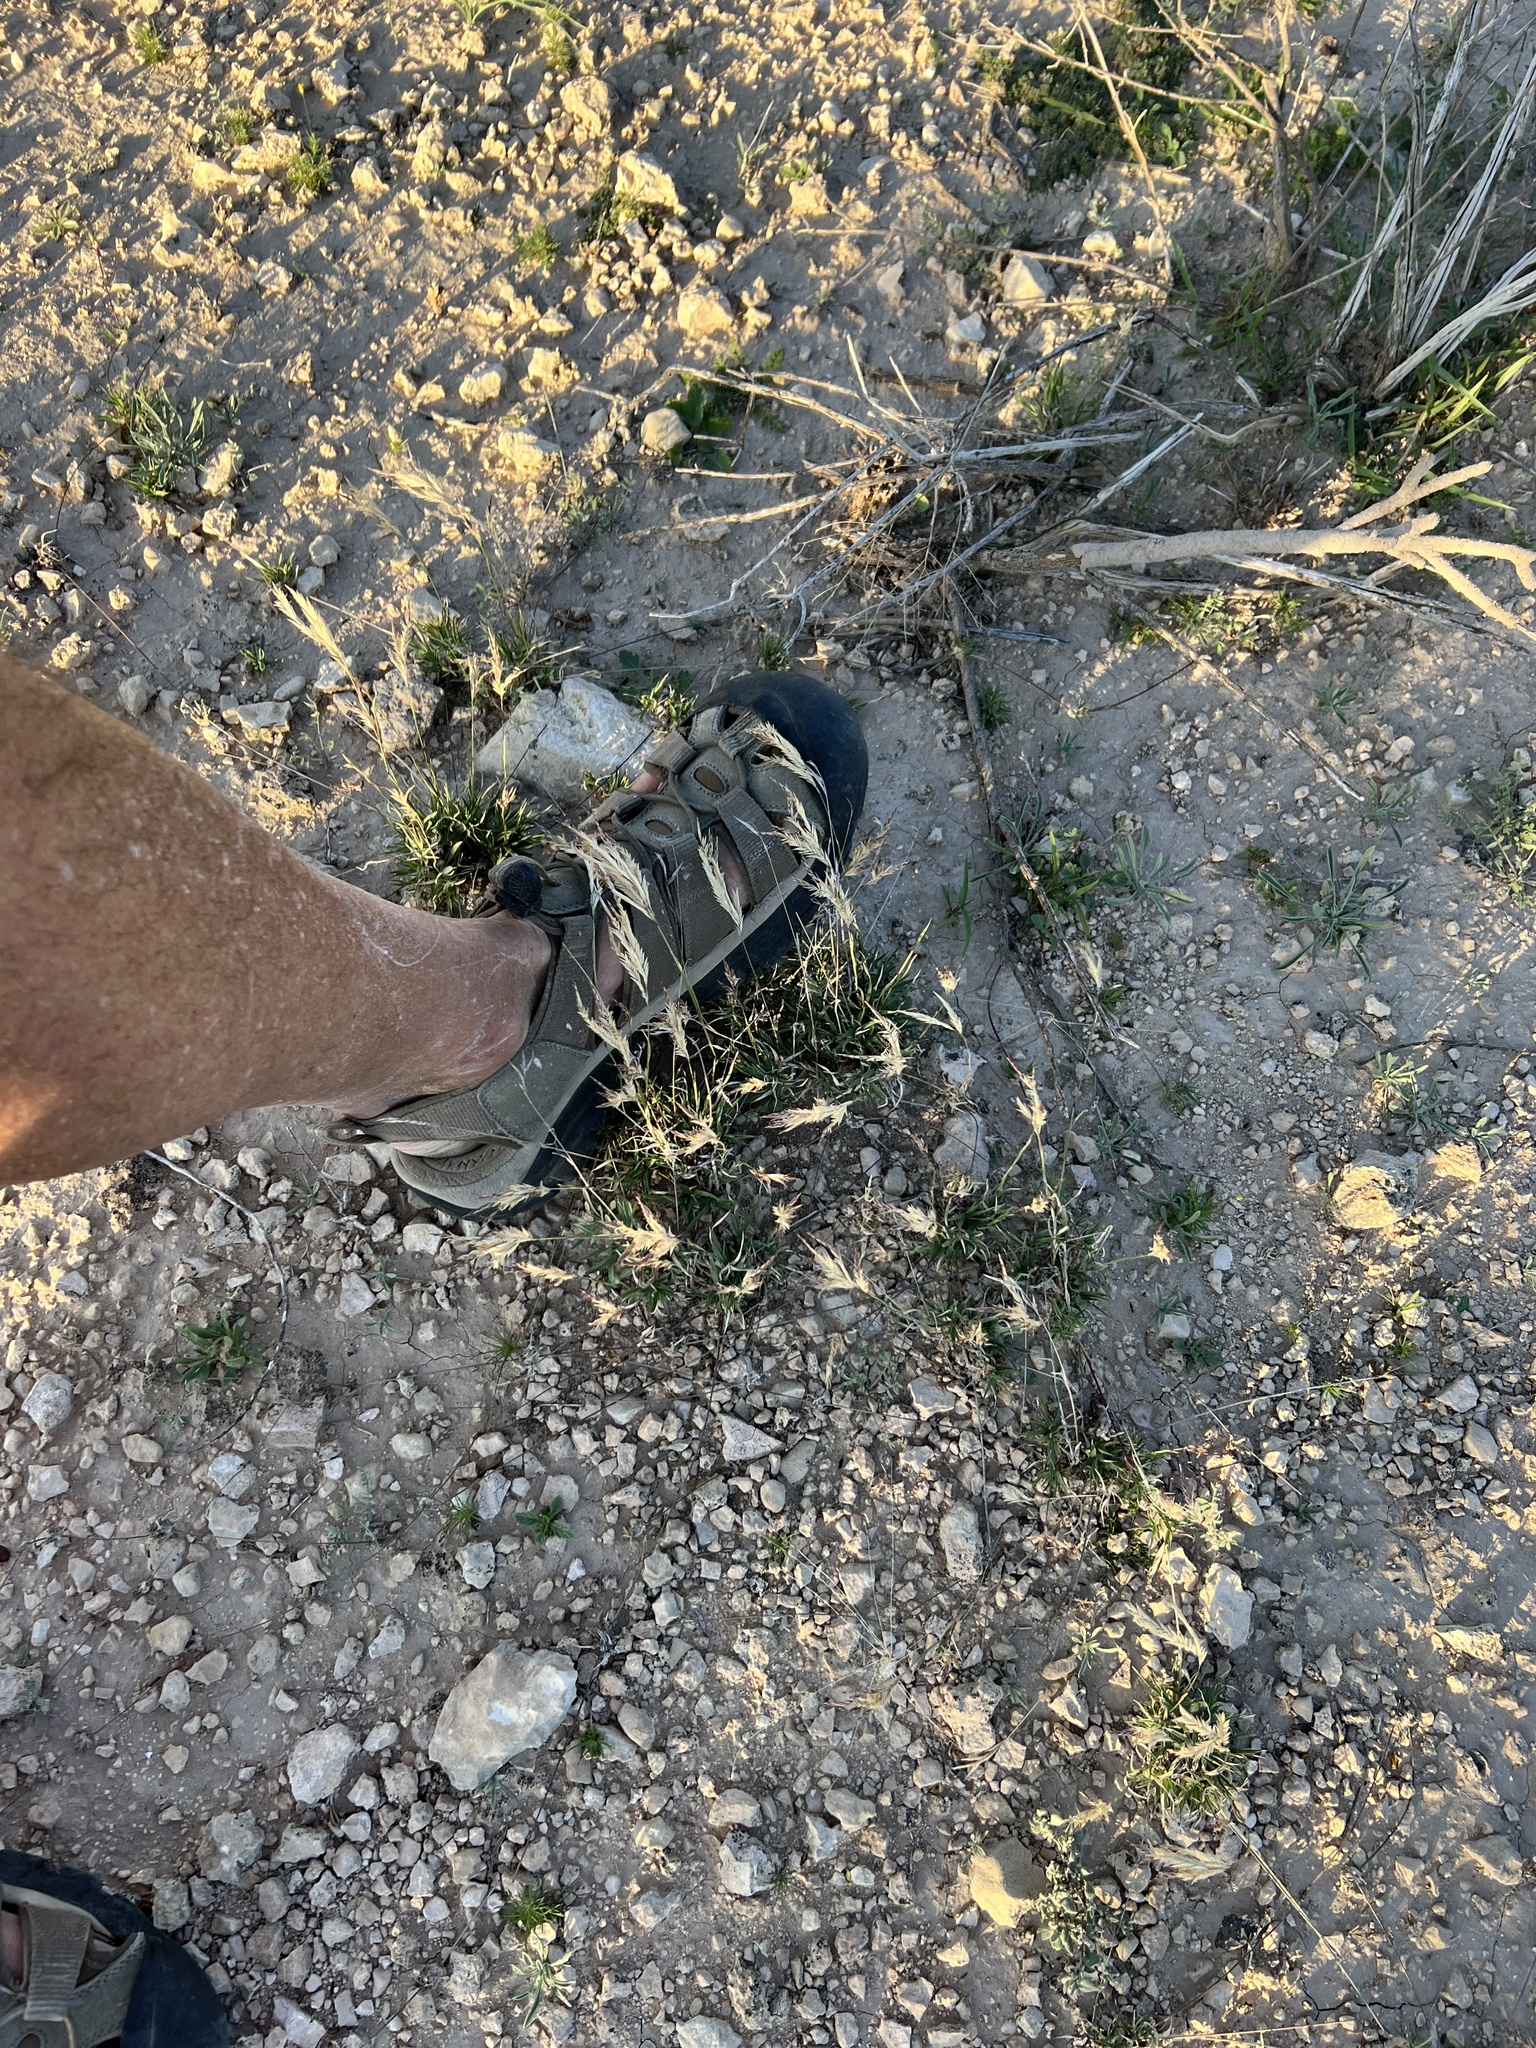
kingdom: Plantae
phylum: Tracheophyta
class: Liliopsida
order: Poales
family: Poaceae
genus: Scleropogon
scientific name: Scleropogon brevifolius
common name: Burro grass
